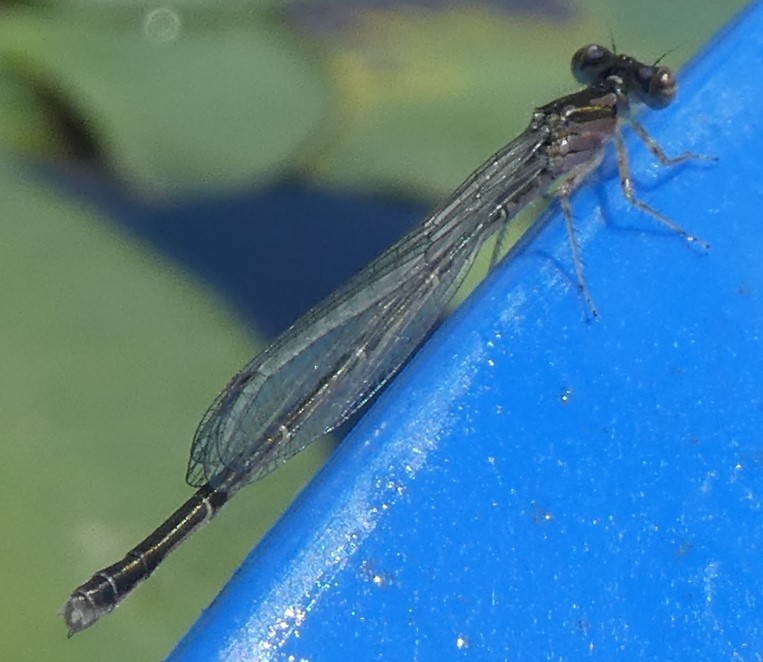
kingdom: Animalia
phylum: Arthropoda
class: Insecta
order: Odonata
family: Coenagrionidae
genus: Ischnura
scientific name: Ischnura posita
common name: Fragile forktail
